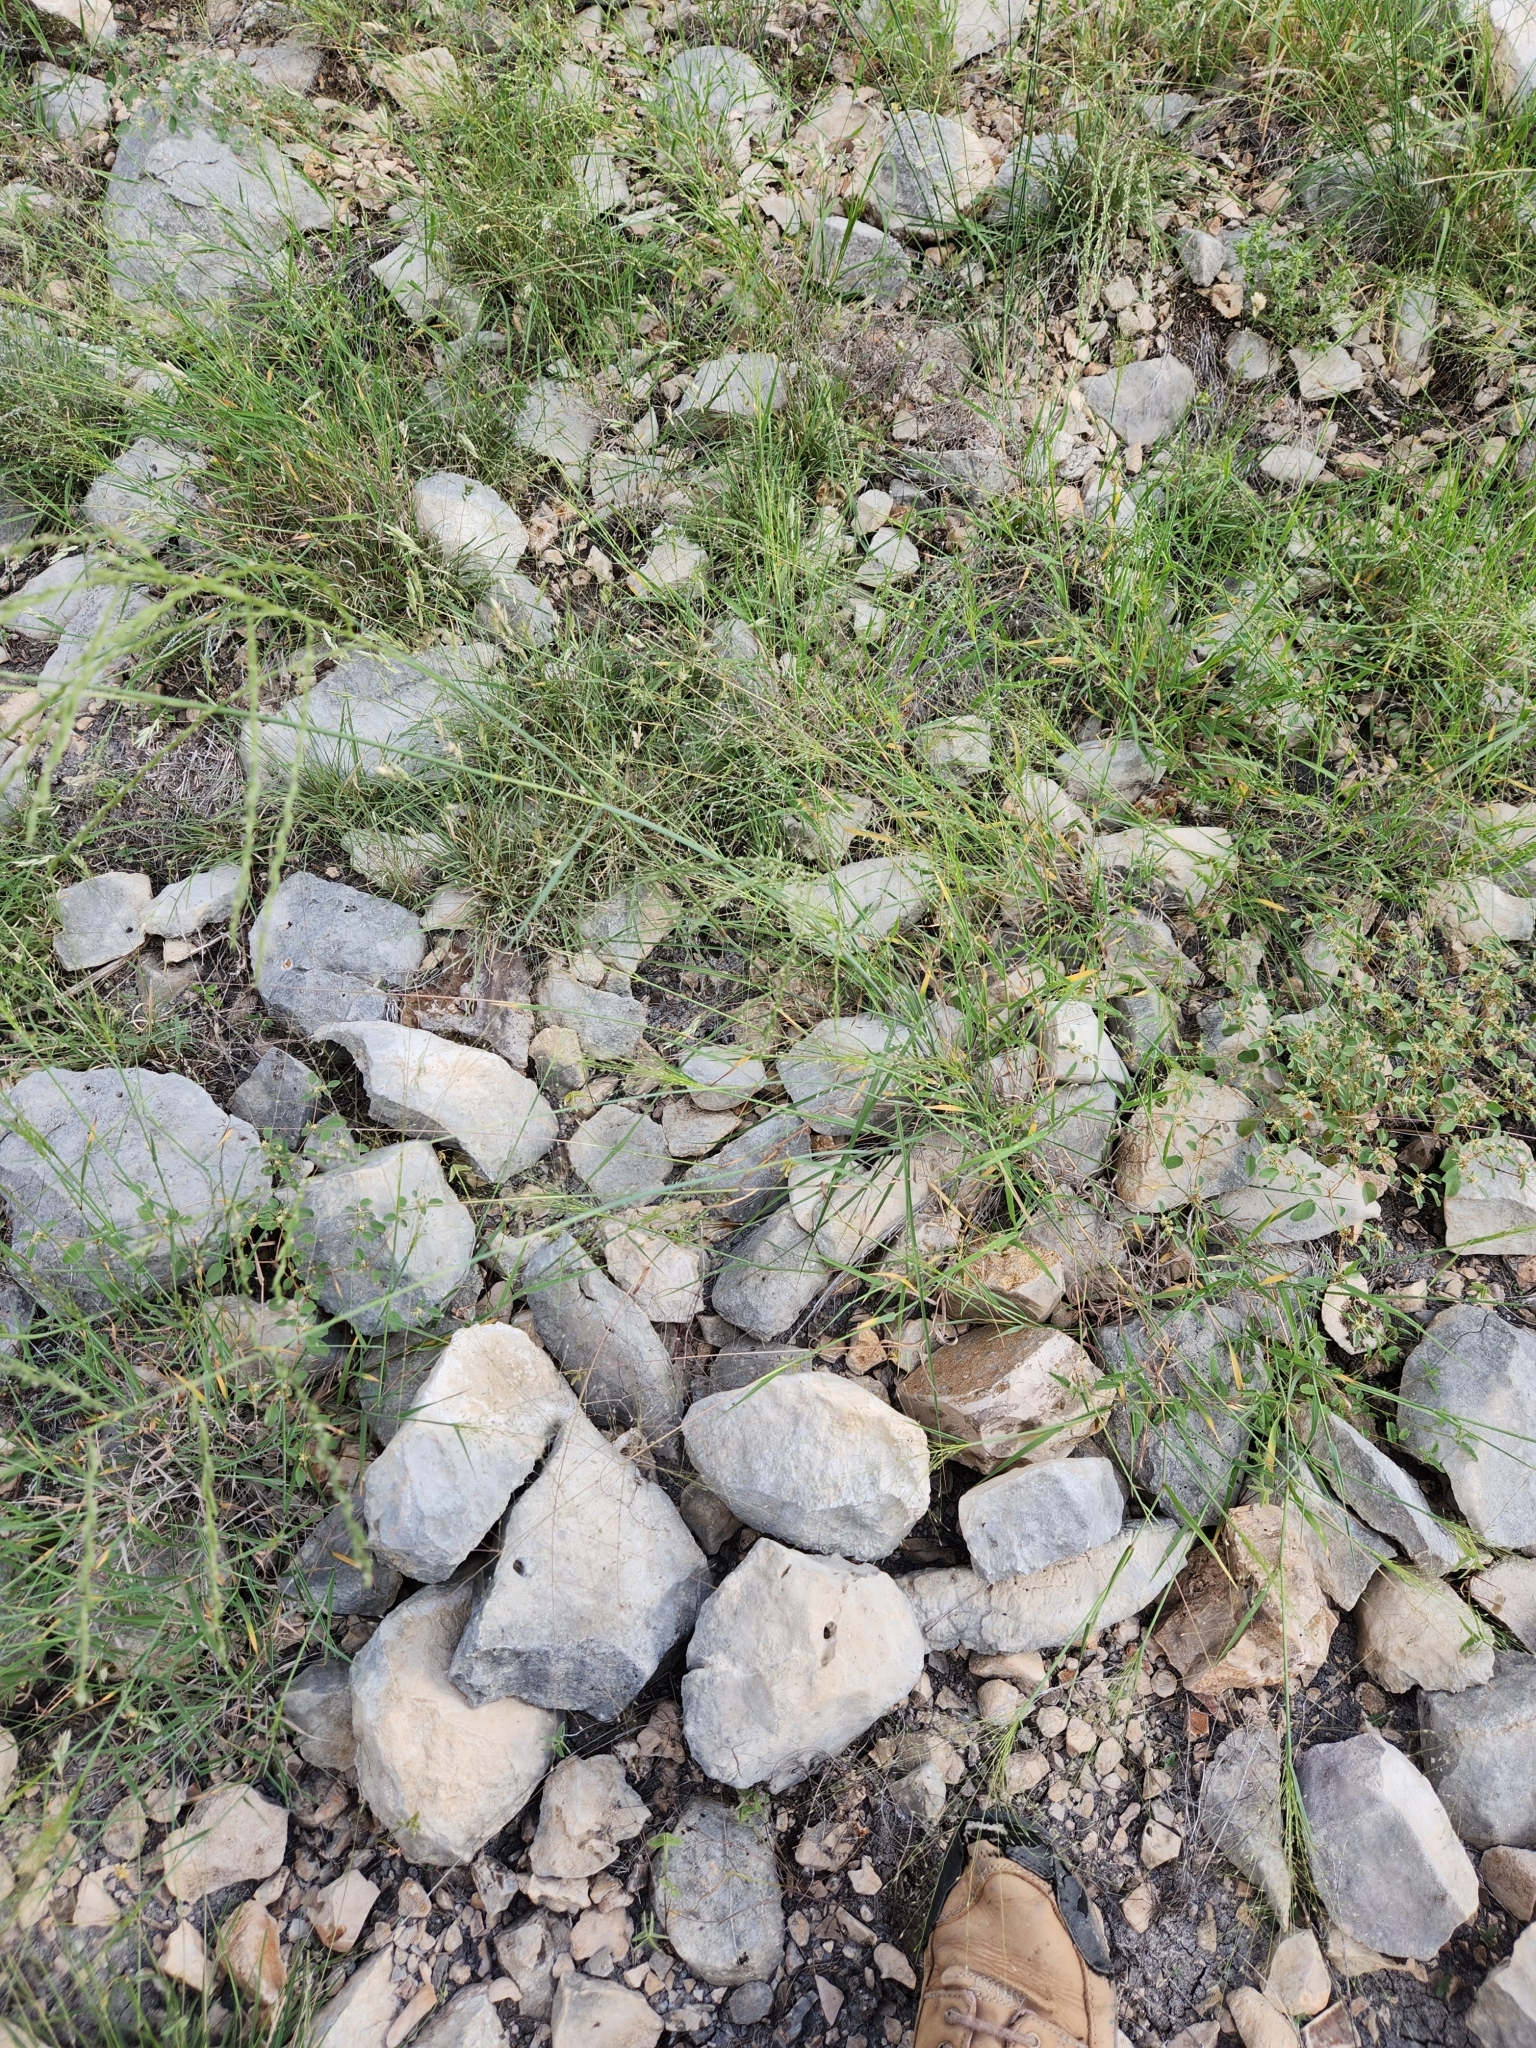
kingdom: Plantae
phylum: Tracheophyta
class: Liliopsida
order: Poales
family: Poaceae
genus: Disakisperma
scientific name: Disakisperma dubium
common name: Green sprangletop
